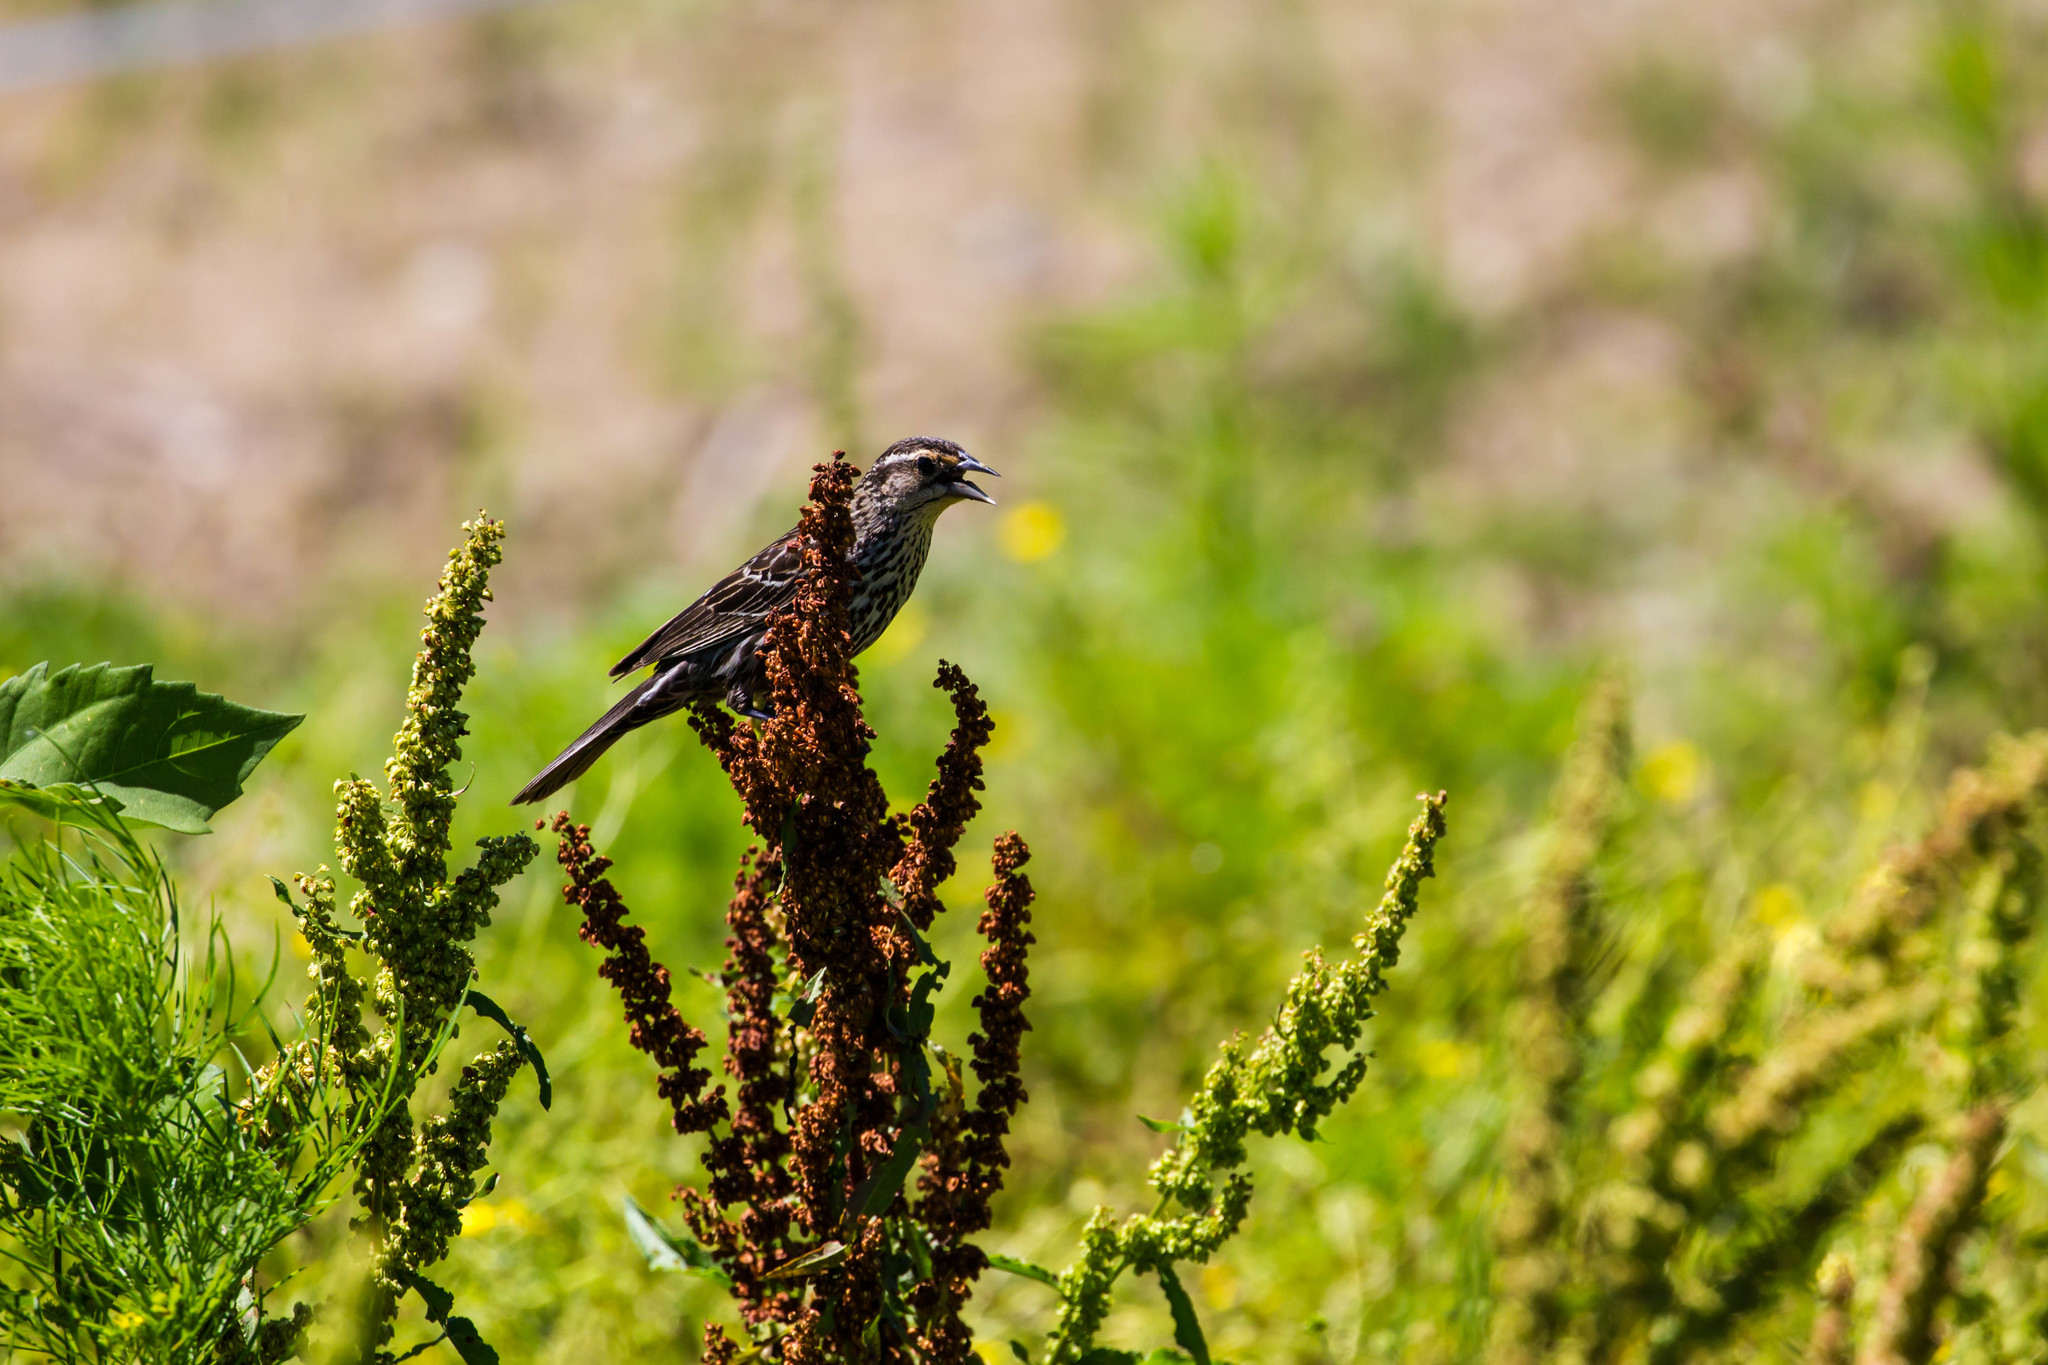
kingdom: Animalia
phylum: Chordata
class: Aves
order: Passeriformes
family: Icteridae
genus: Agelaius
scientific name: Agelaius phoeniceus
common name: Red-winged blackbird
